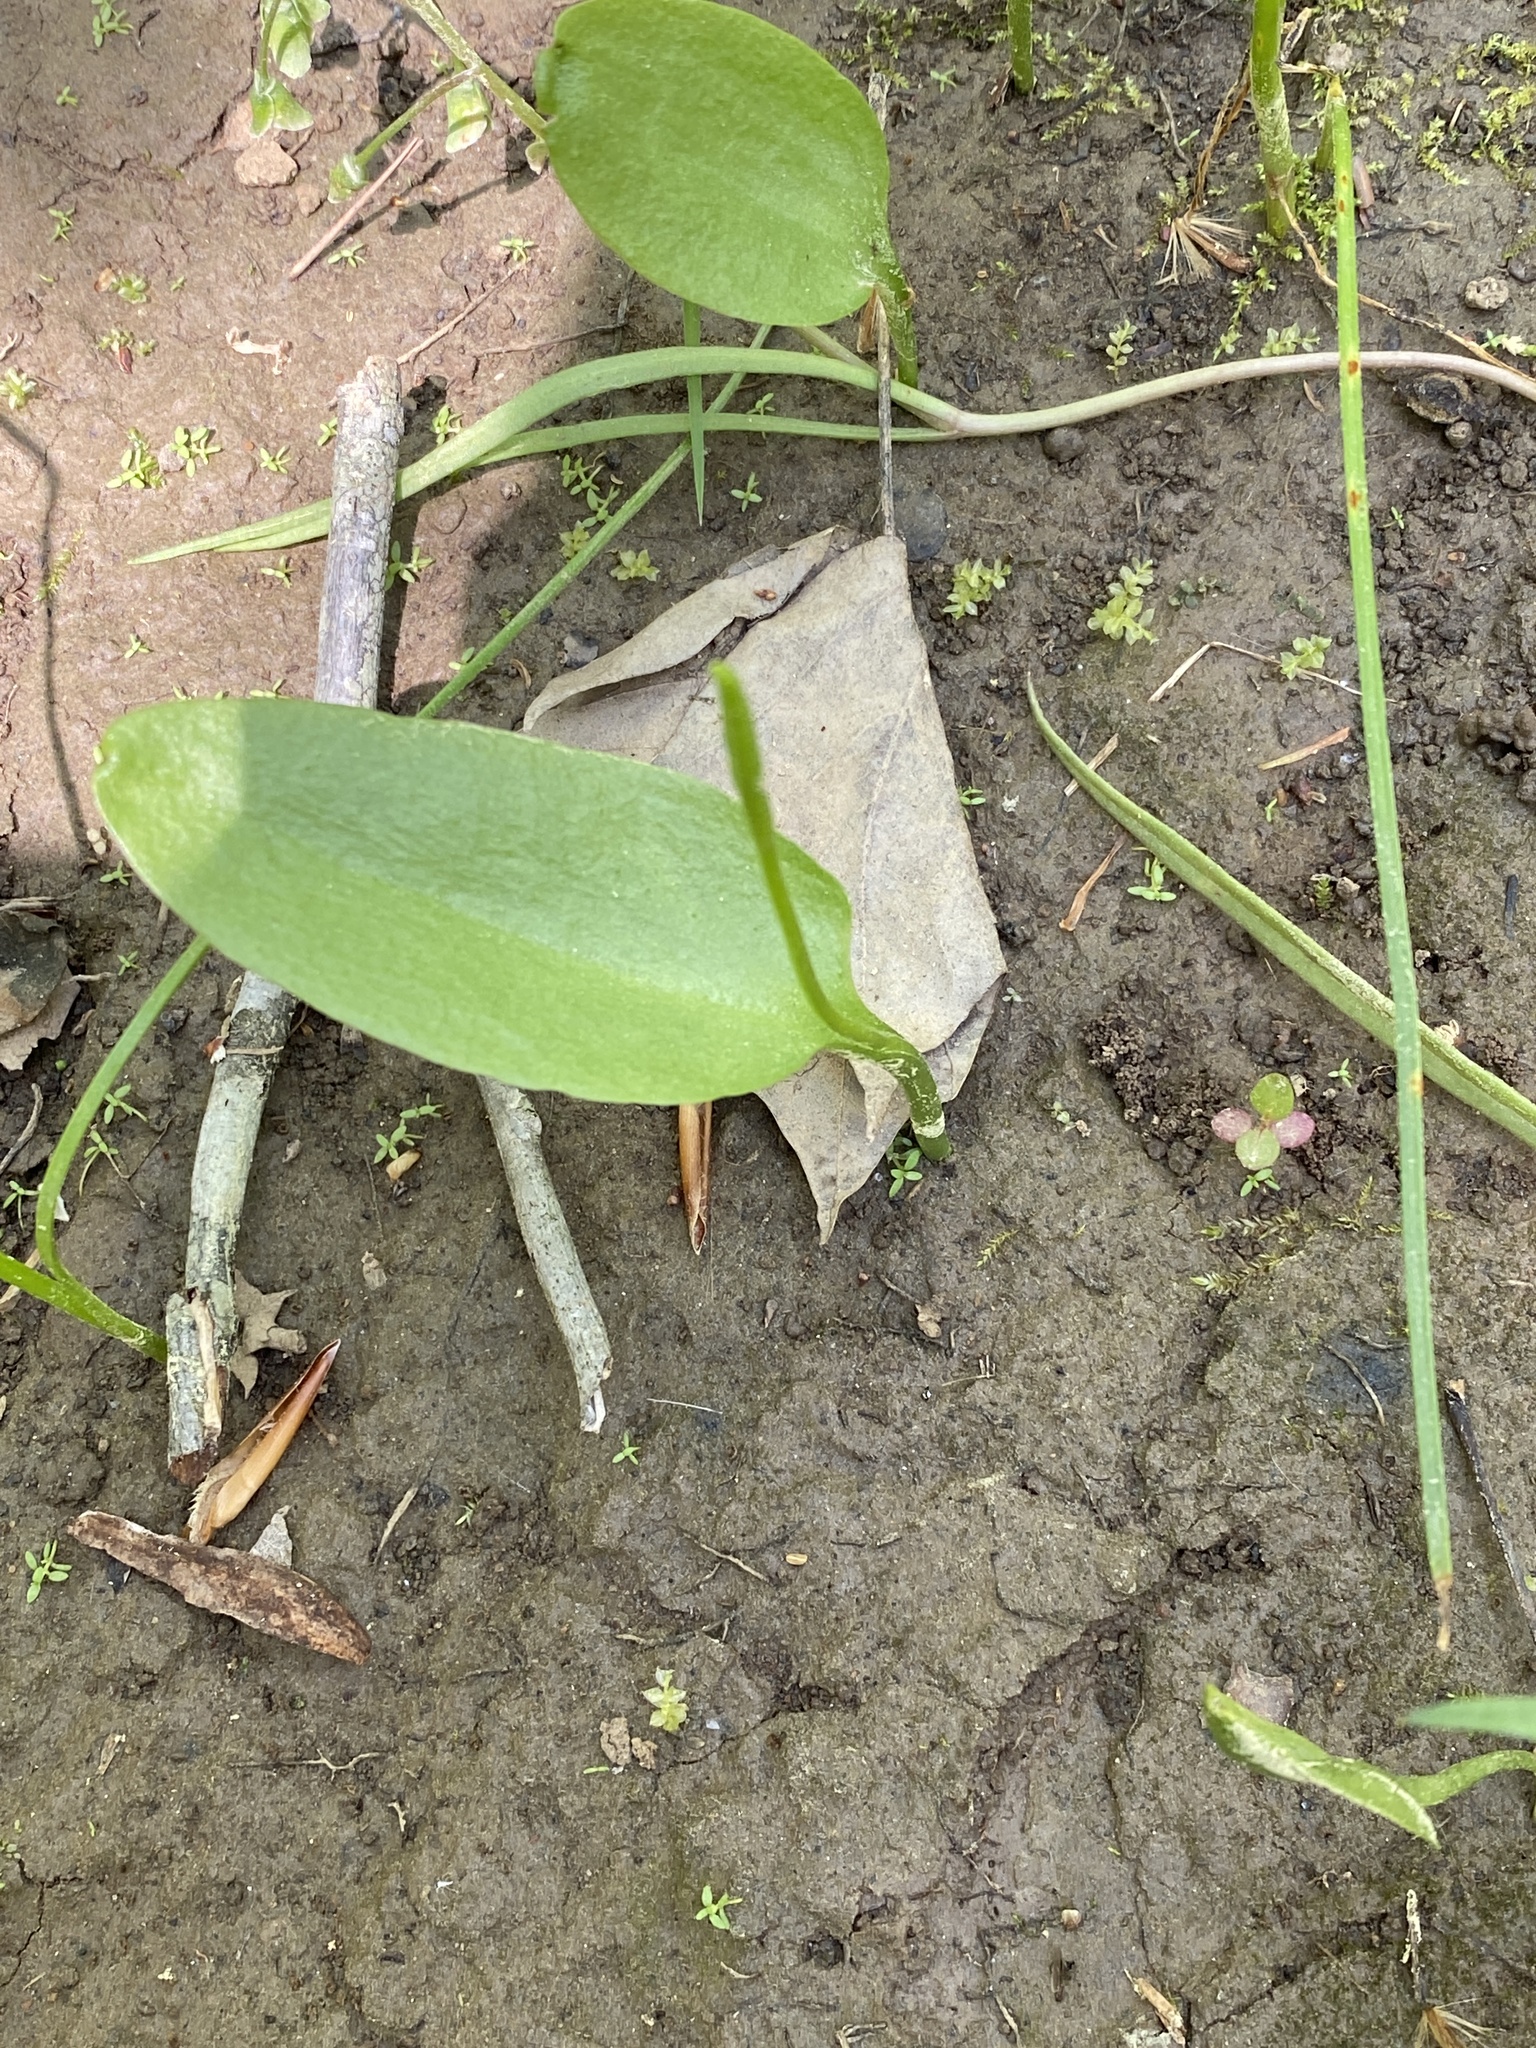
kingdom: Plantae
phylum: Tracheophyta
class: Polypodiopsida
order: Ophioglossales
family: Ophioglossaceae
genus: Ophioglossum
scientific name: Ophioglossum vulgatum
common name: Adder's-tongue
